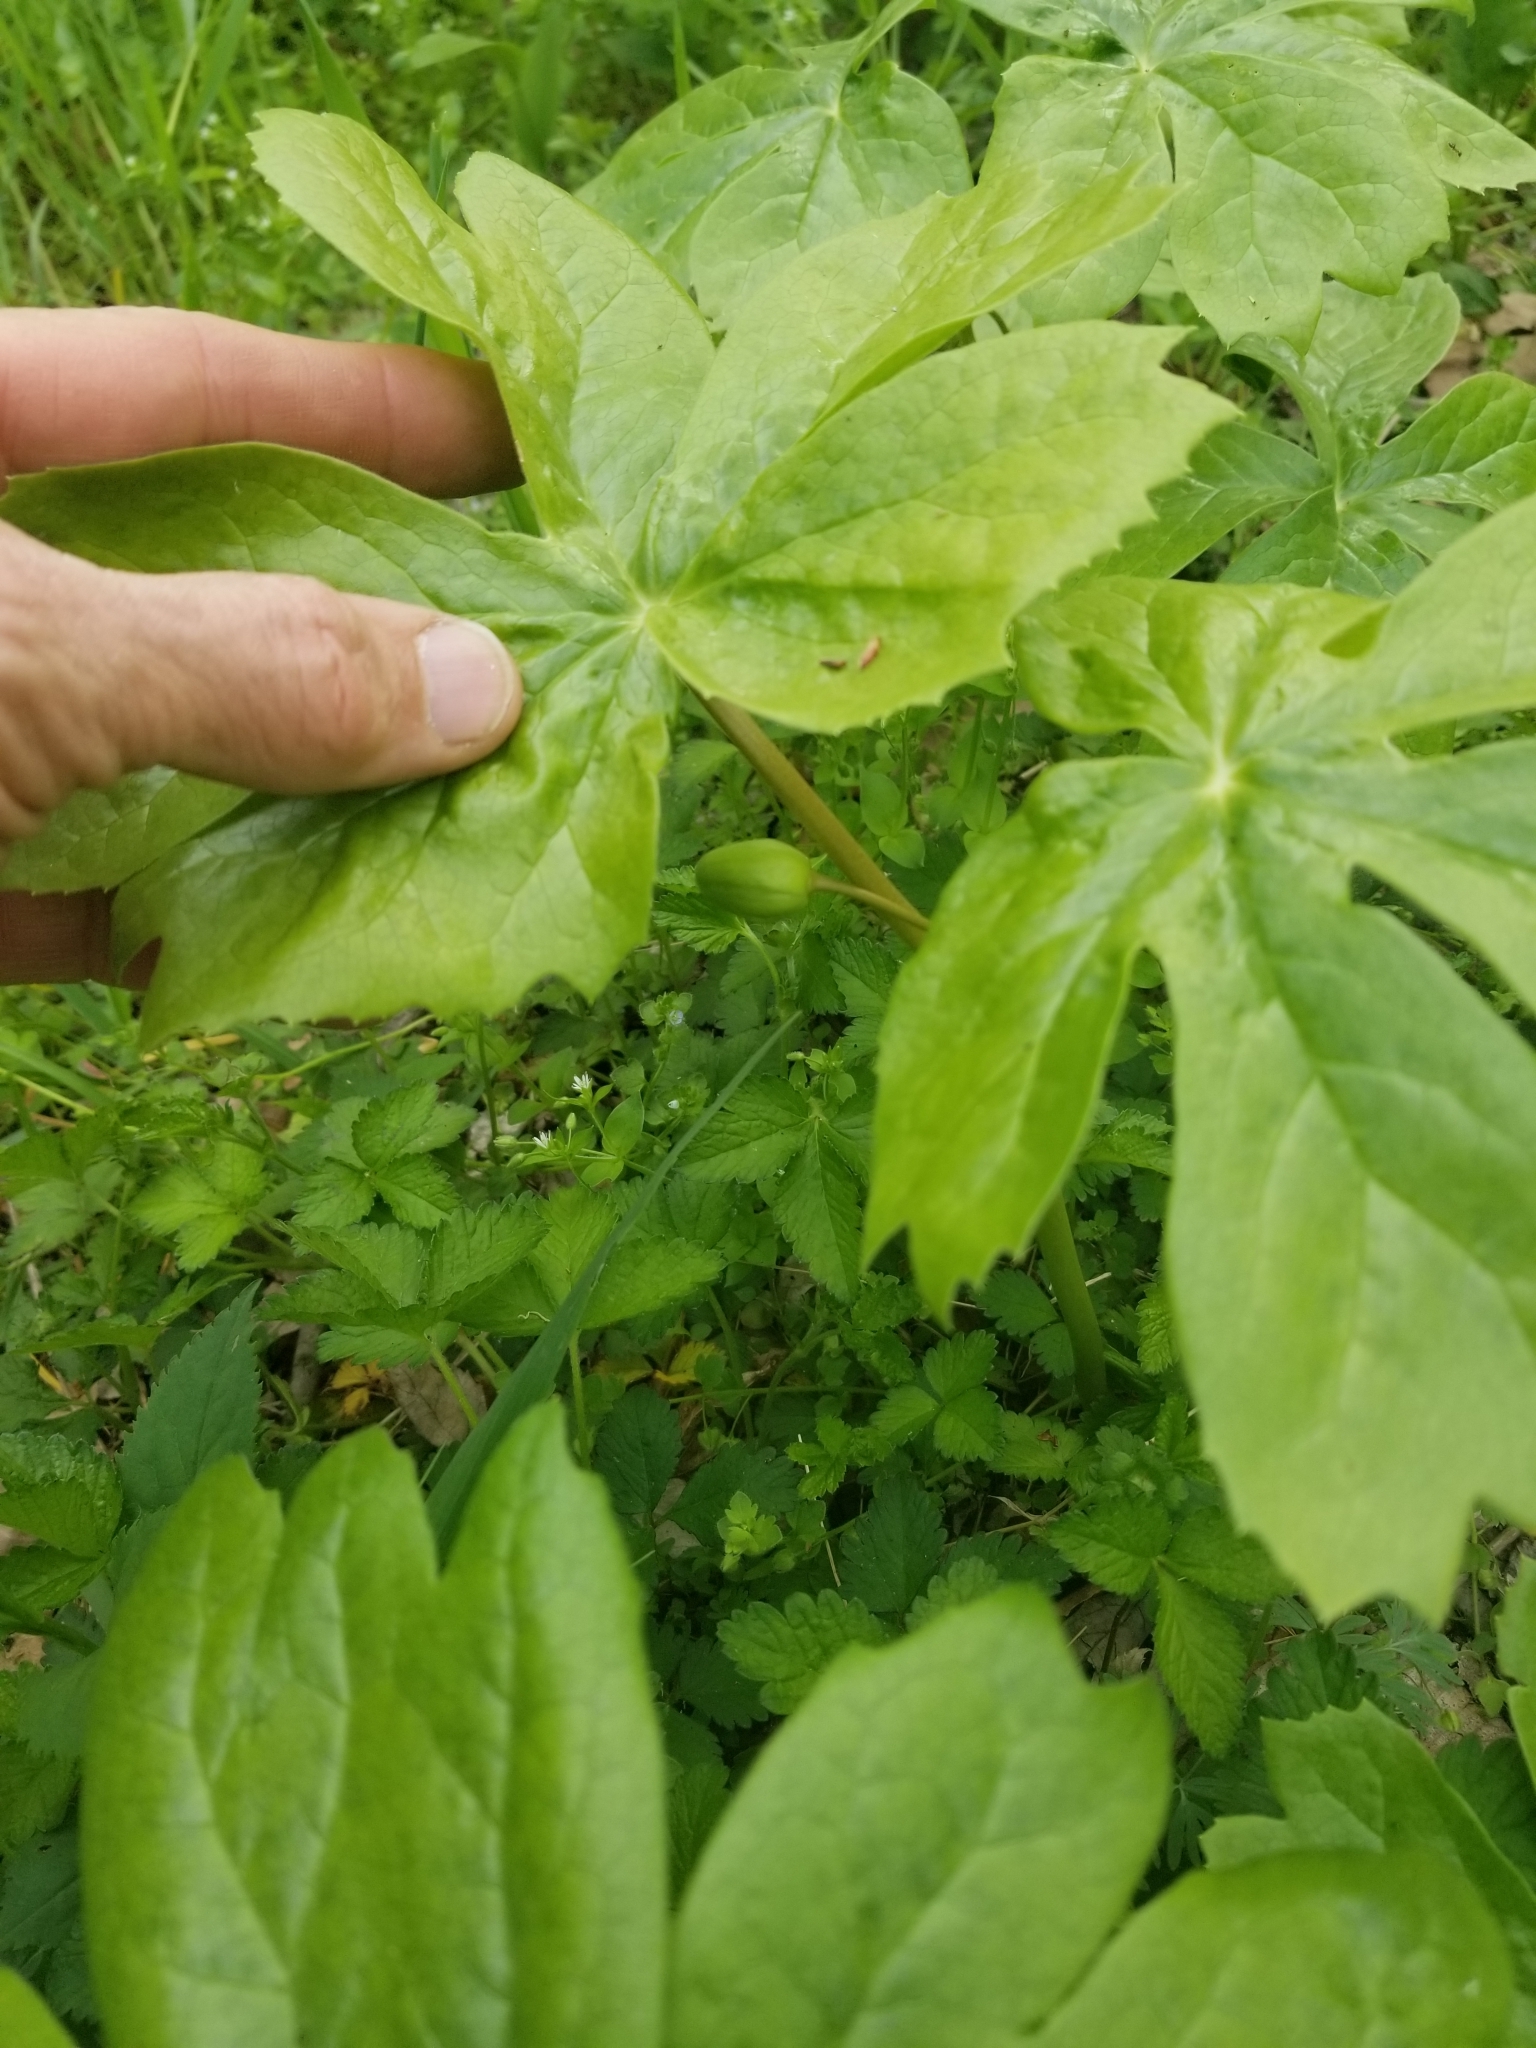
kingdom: Plantae
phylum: Tracheophyta
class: Magnoliopsida
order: Ranunculales
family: Berberidaceae
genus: Podophyllum
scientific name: Podophyllum peltatum
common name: Wild mandrake
